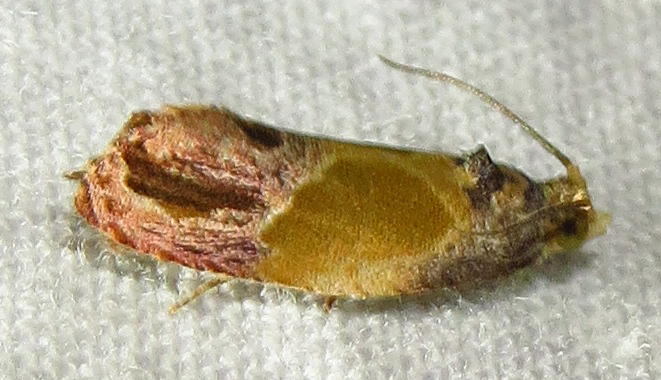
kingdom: Animalia
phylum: Arthropoda
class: Insecta
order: Lepidoptera
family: Tortricidae
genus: Eumarozia
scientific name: Eumarozia malachitana
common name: Sculptured moth
